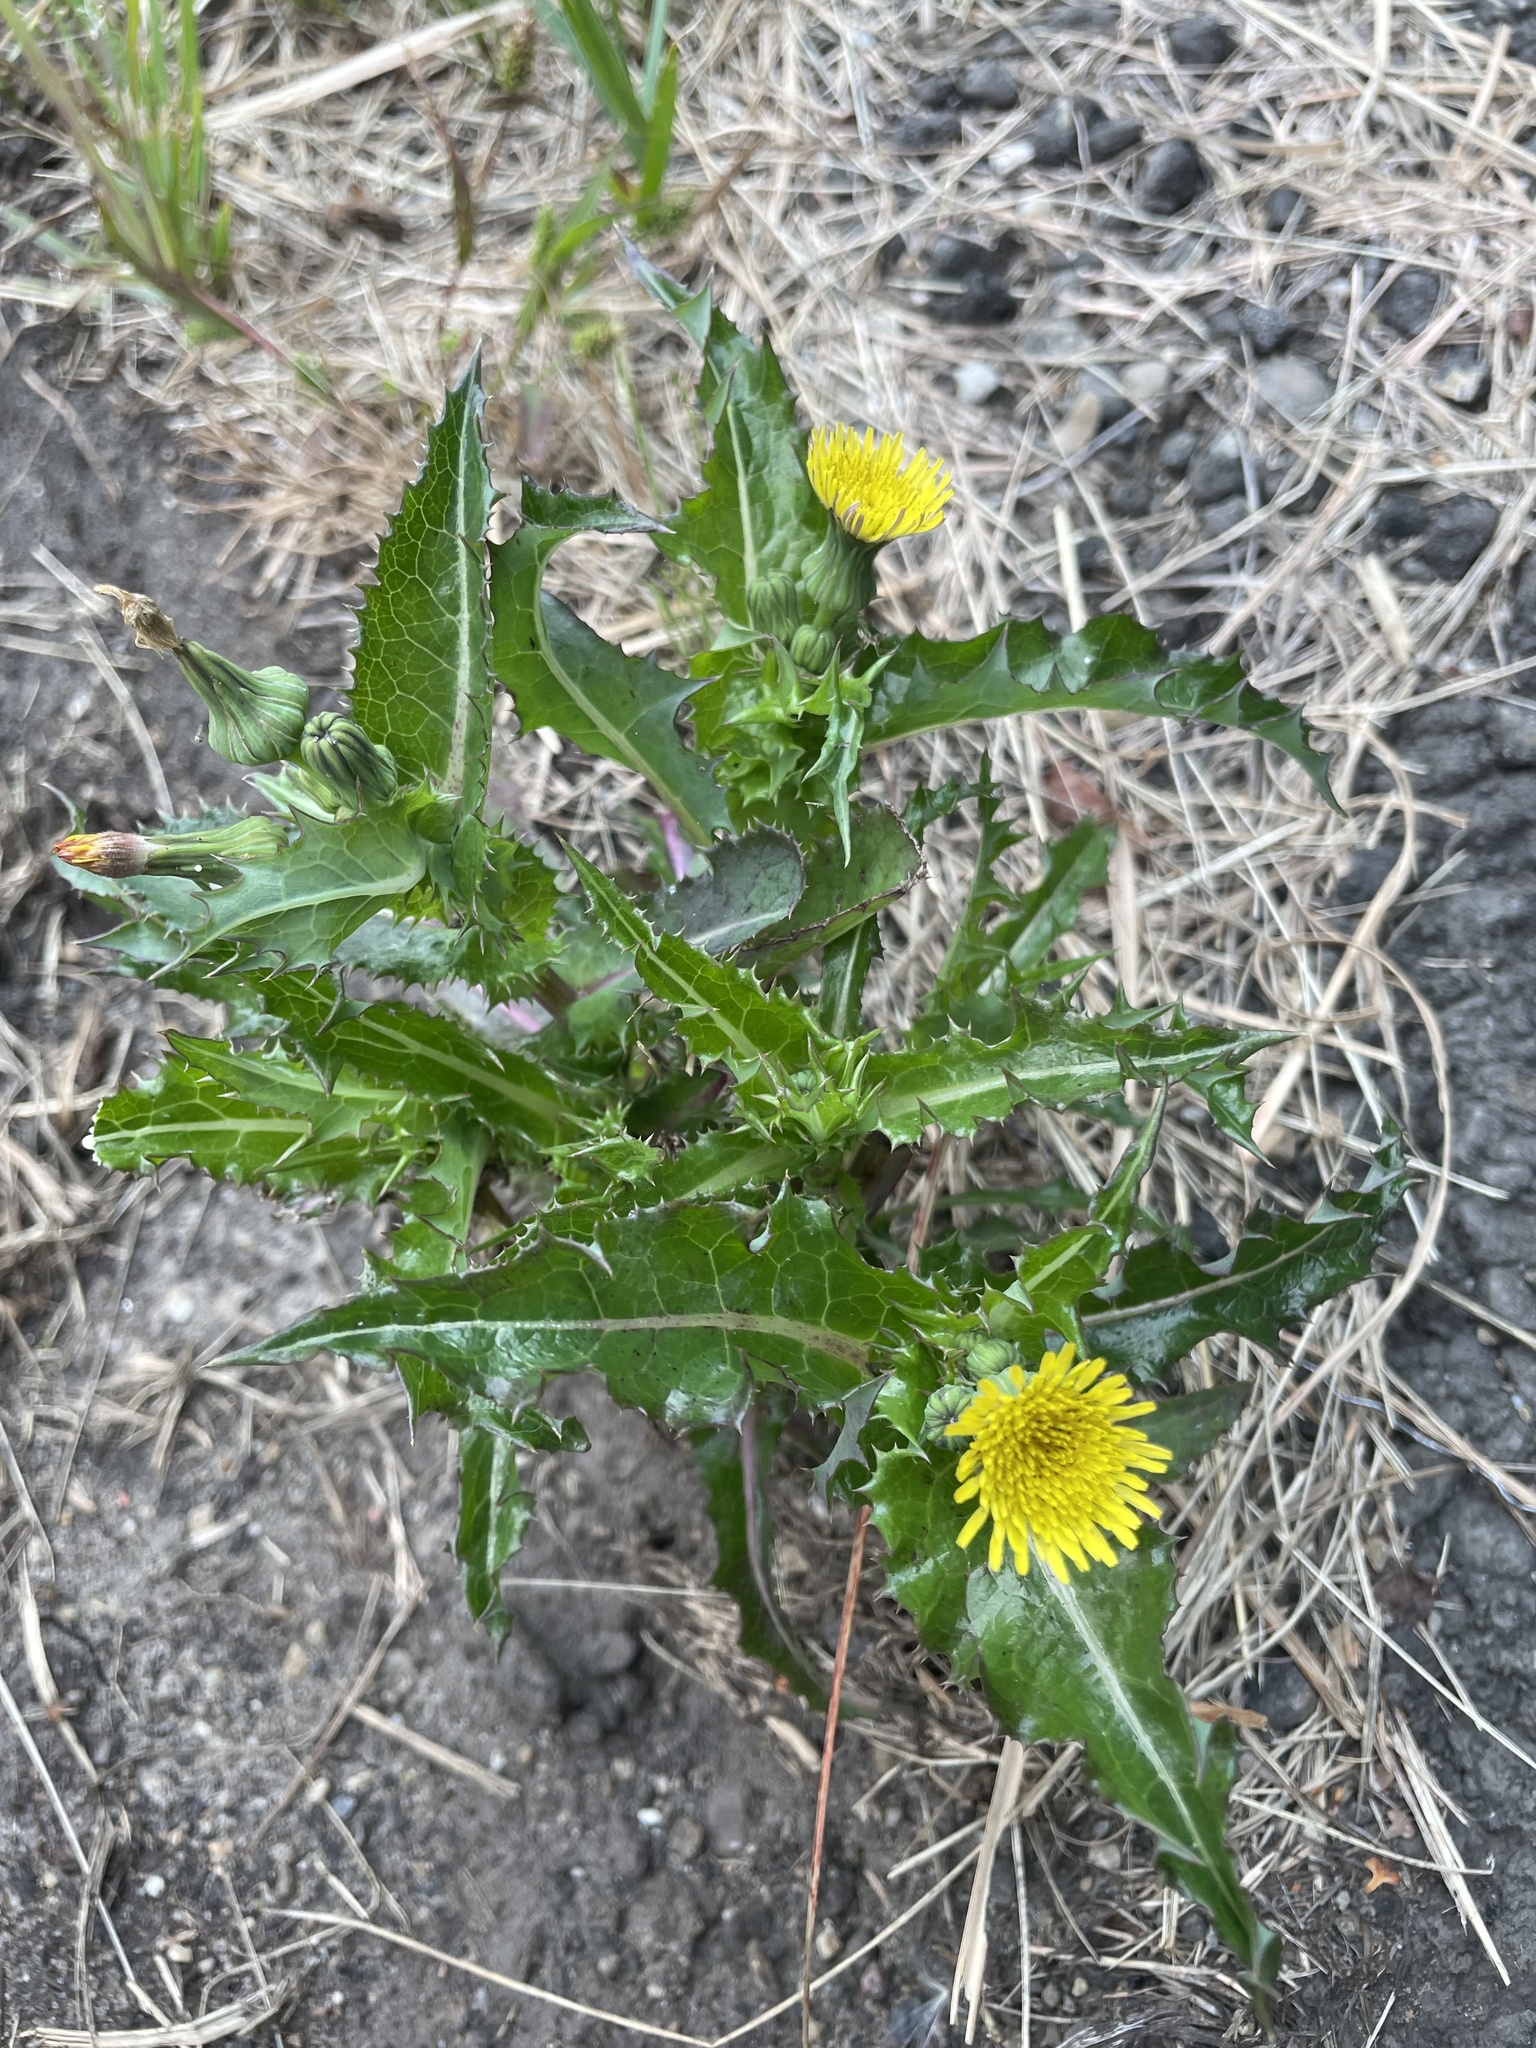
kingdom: Plantae
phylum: Tracheophyta
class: Magnoliopsida
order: Asterales
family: Asteraceae
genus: Sonchus
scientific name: Sonchus asper
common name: Prickly sow-thistle
